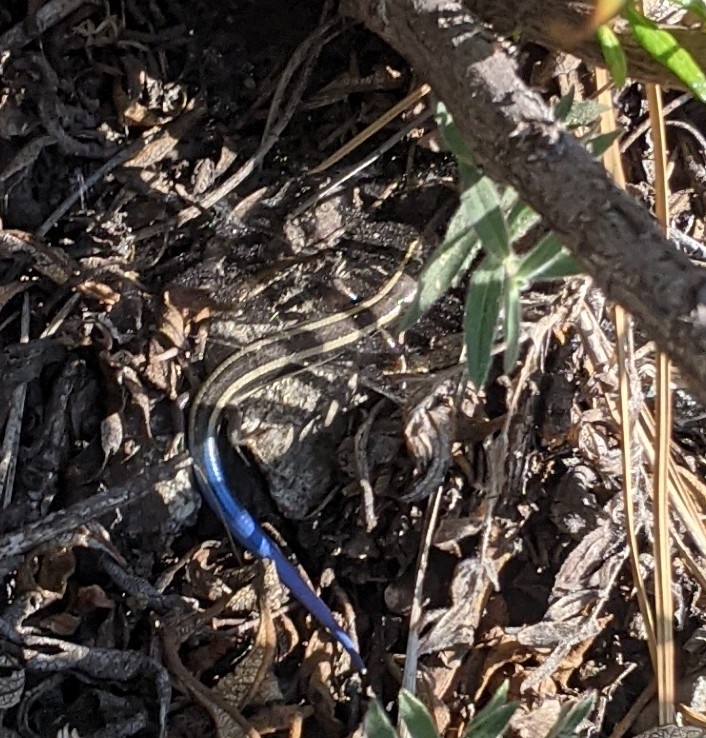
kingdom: Animalia
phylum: Chordata
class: Squamata
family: Scincidae
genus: Plestiodon
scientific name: Plestiodon skiltonianus
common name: Coronado island skink [interparietalis]
